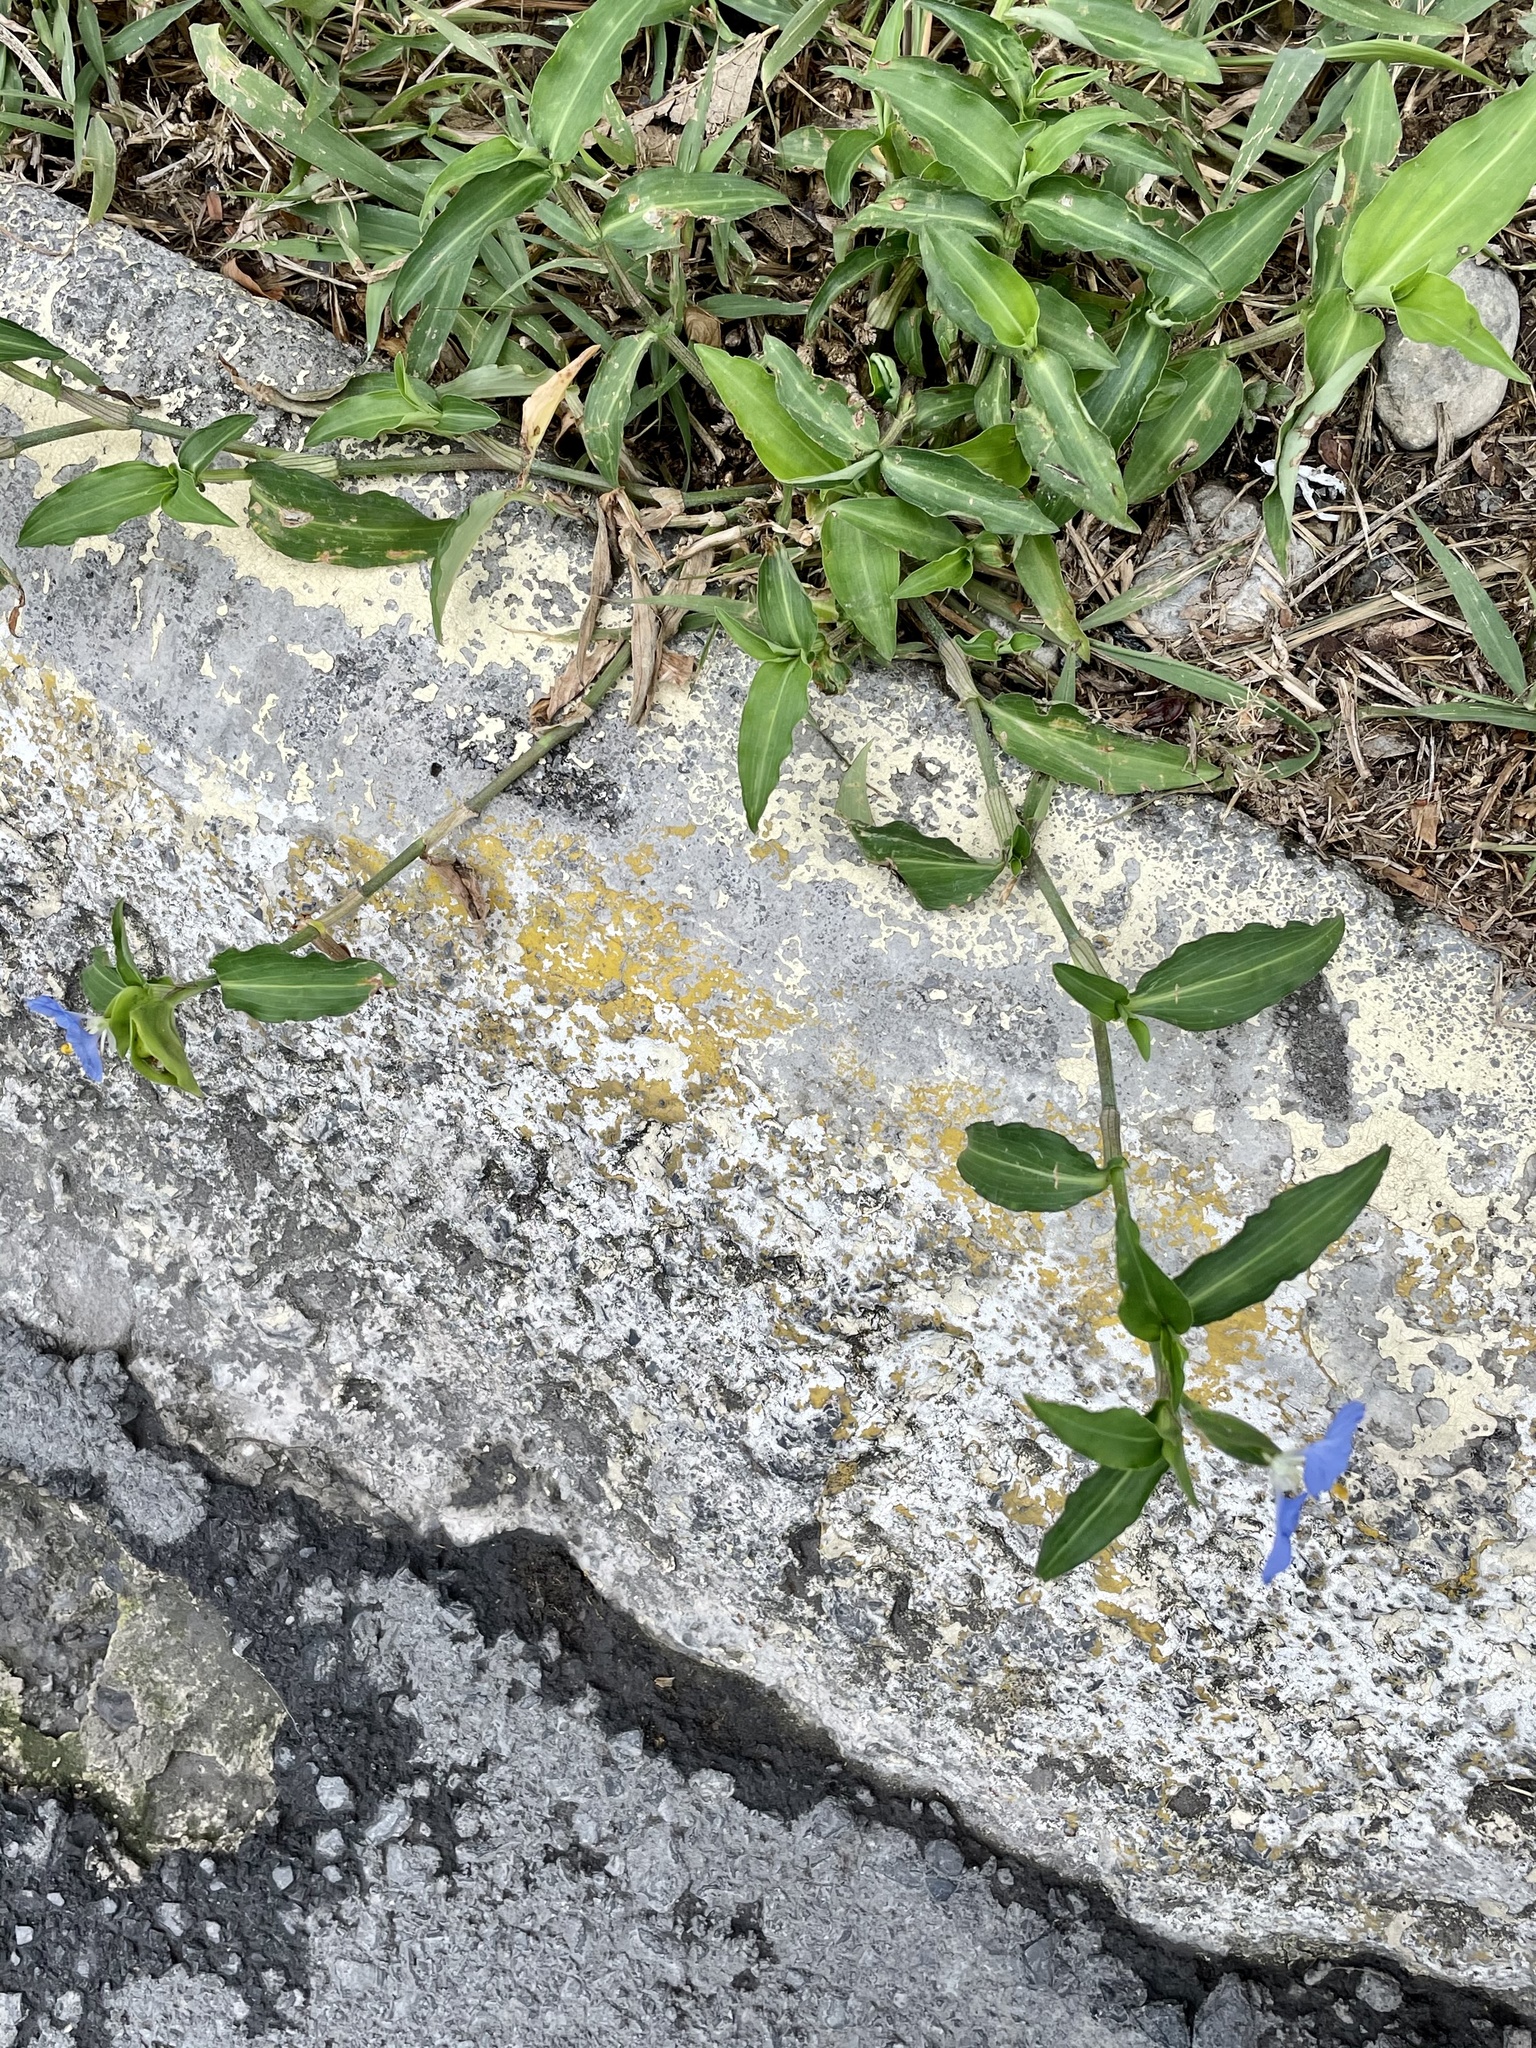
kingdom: Plantae
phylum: Tracheophyta
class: Liliopsida
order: Commelinales
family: Commelinaceae
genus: Commelina
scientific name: Commelina erecta
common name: Blousel blommetjie
